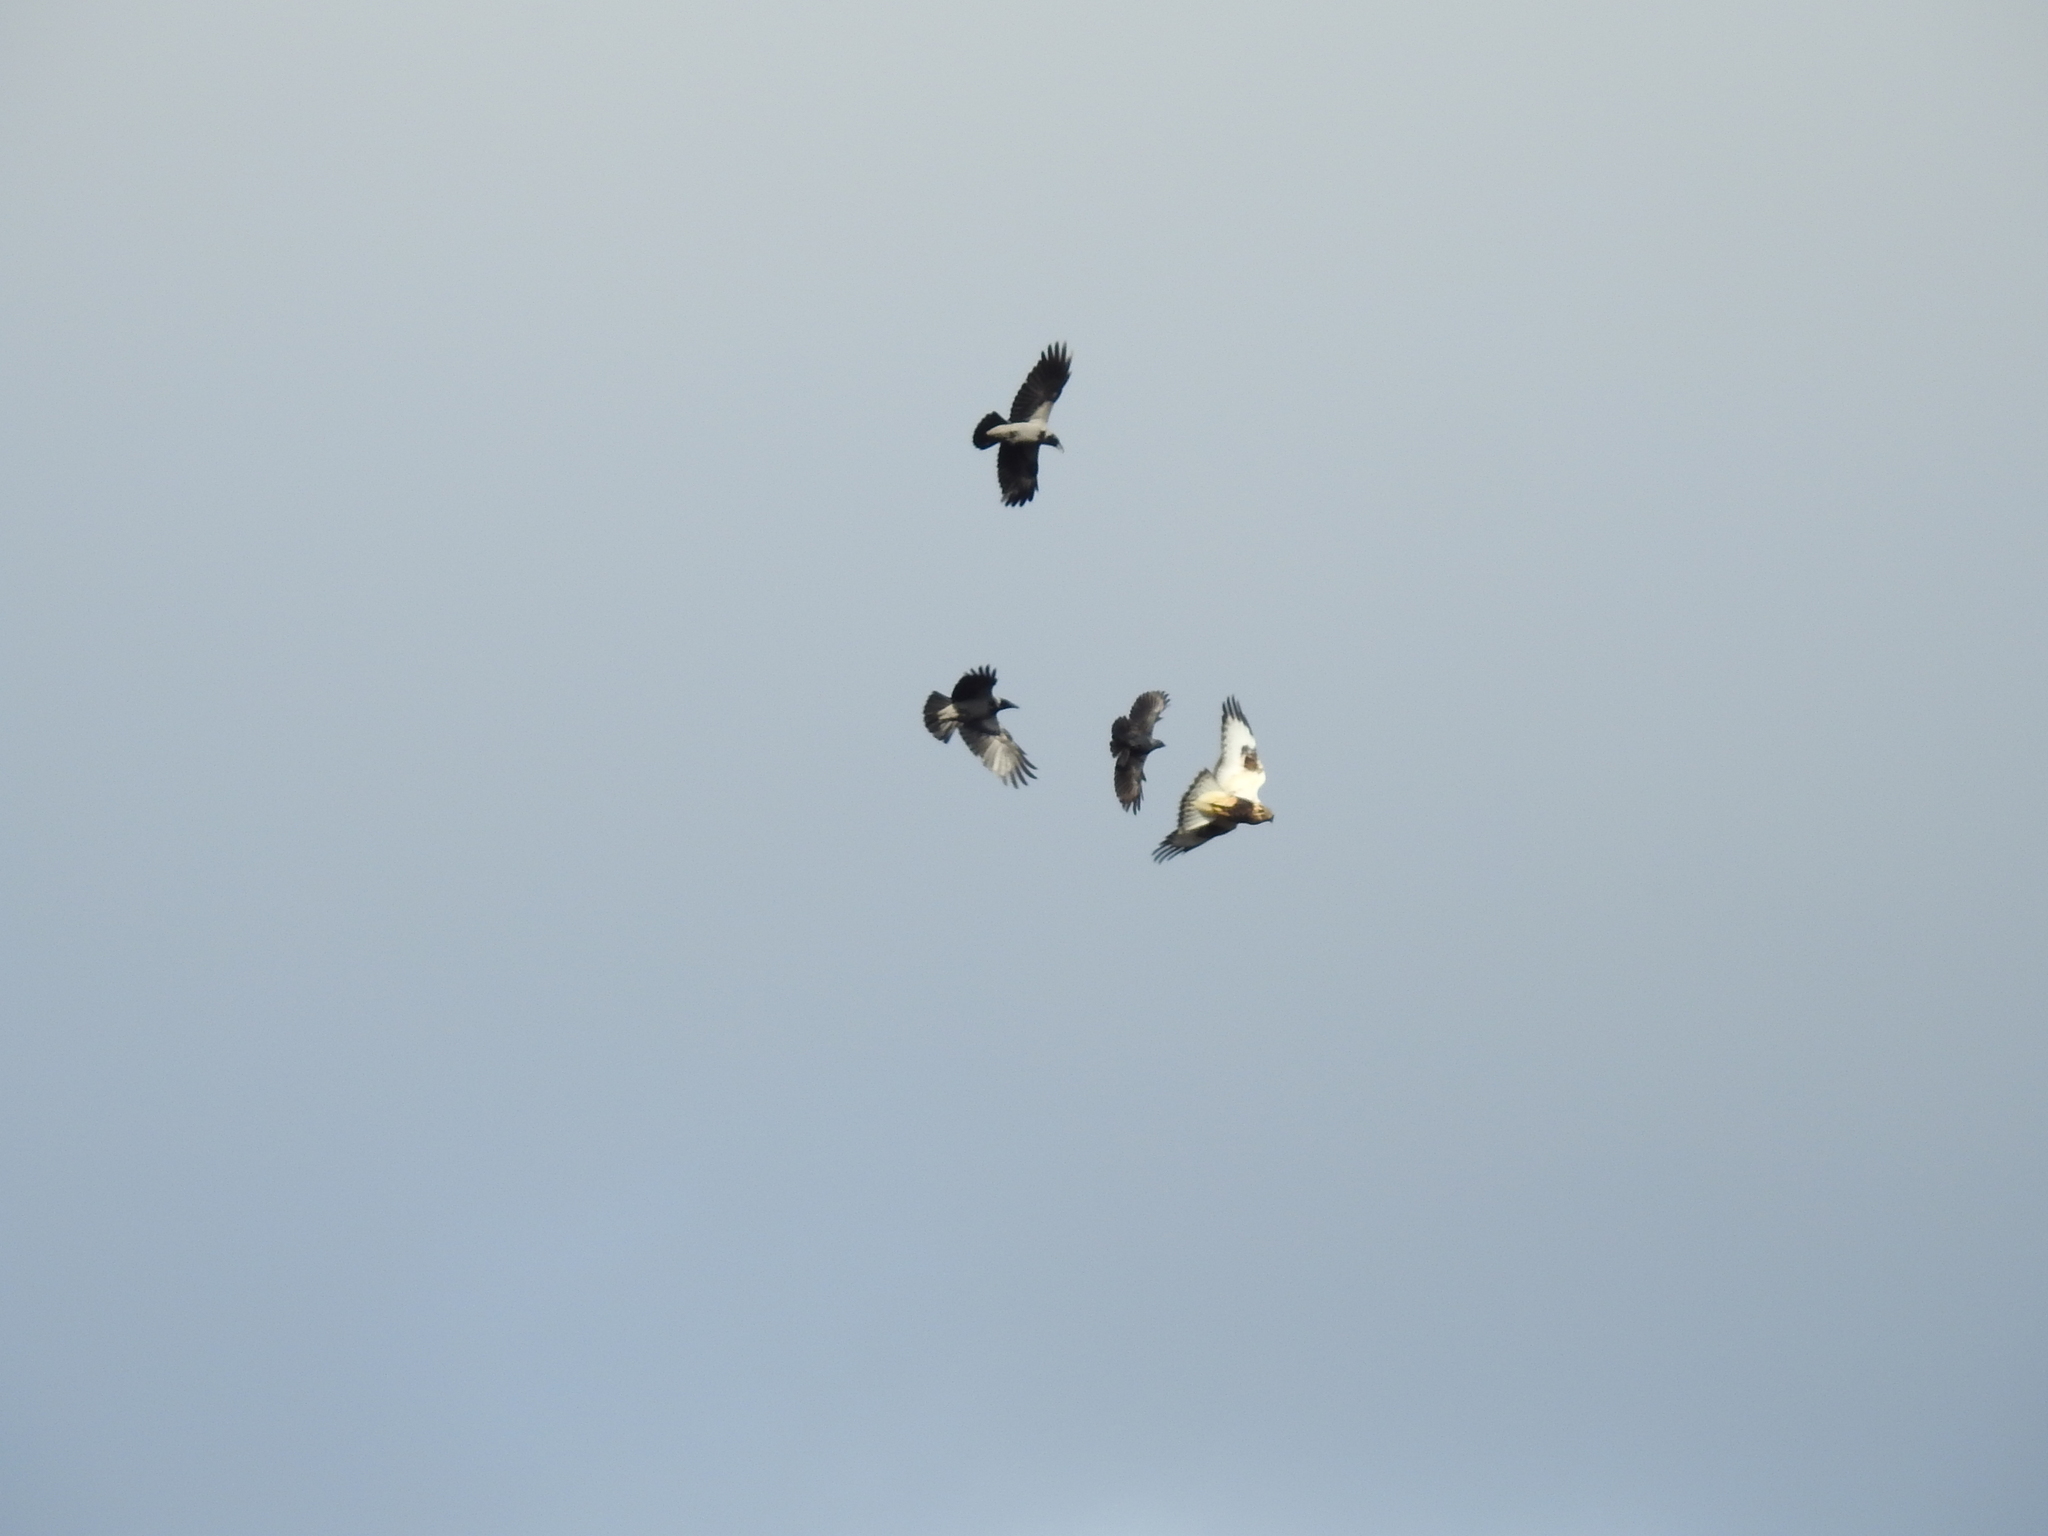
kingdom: Animalia
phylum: Chordata
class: Aves
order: Accipitriformes
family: Accipitridae
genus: Buteo
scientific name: Buteo lagopus
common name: Rough-legged buzzard
